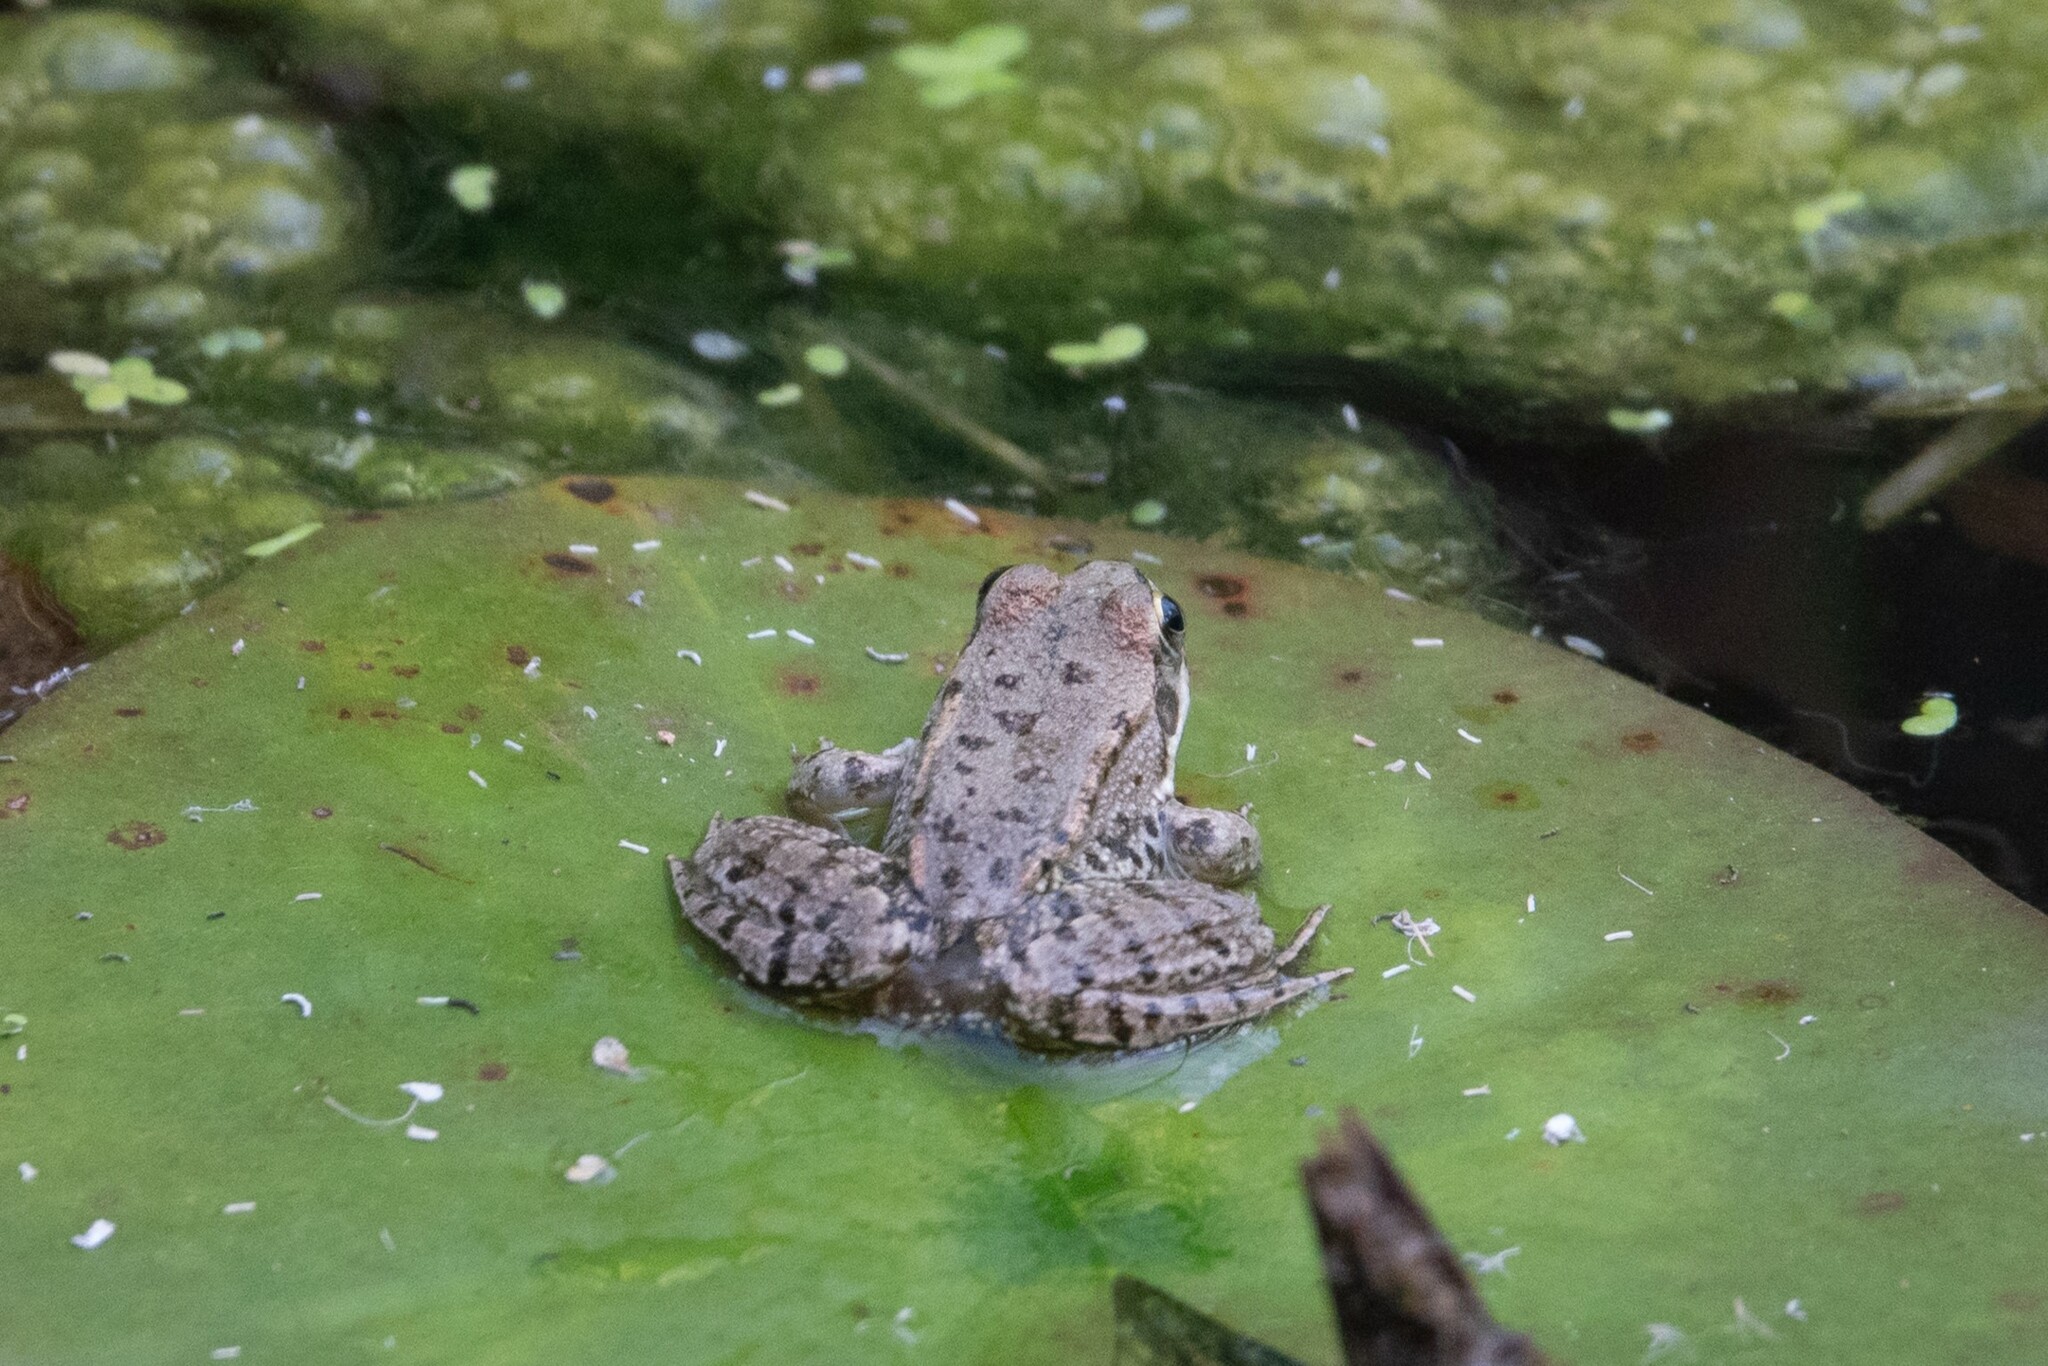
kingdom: Animalia
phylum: Chordata
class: Amphibia
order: Anura
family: Ranidae
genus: Pelophylax
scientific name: Pelophylax ridibundus
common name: Marsh frog
